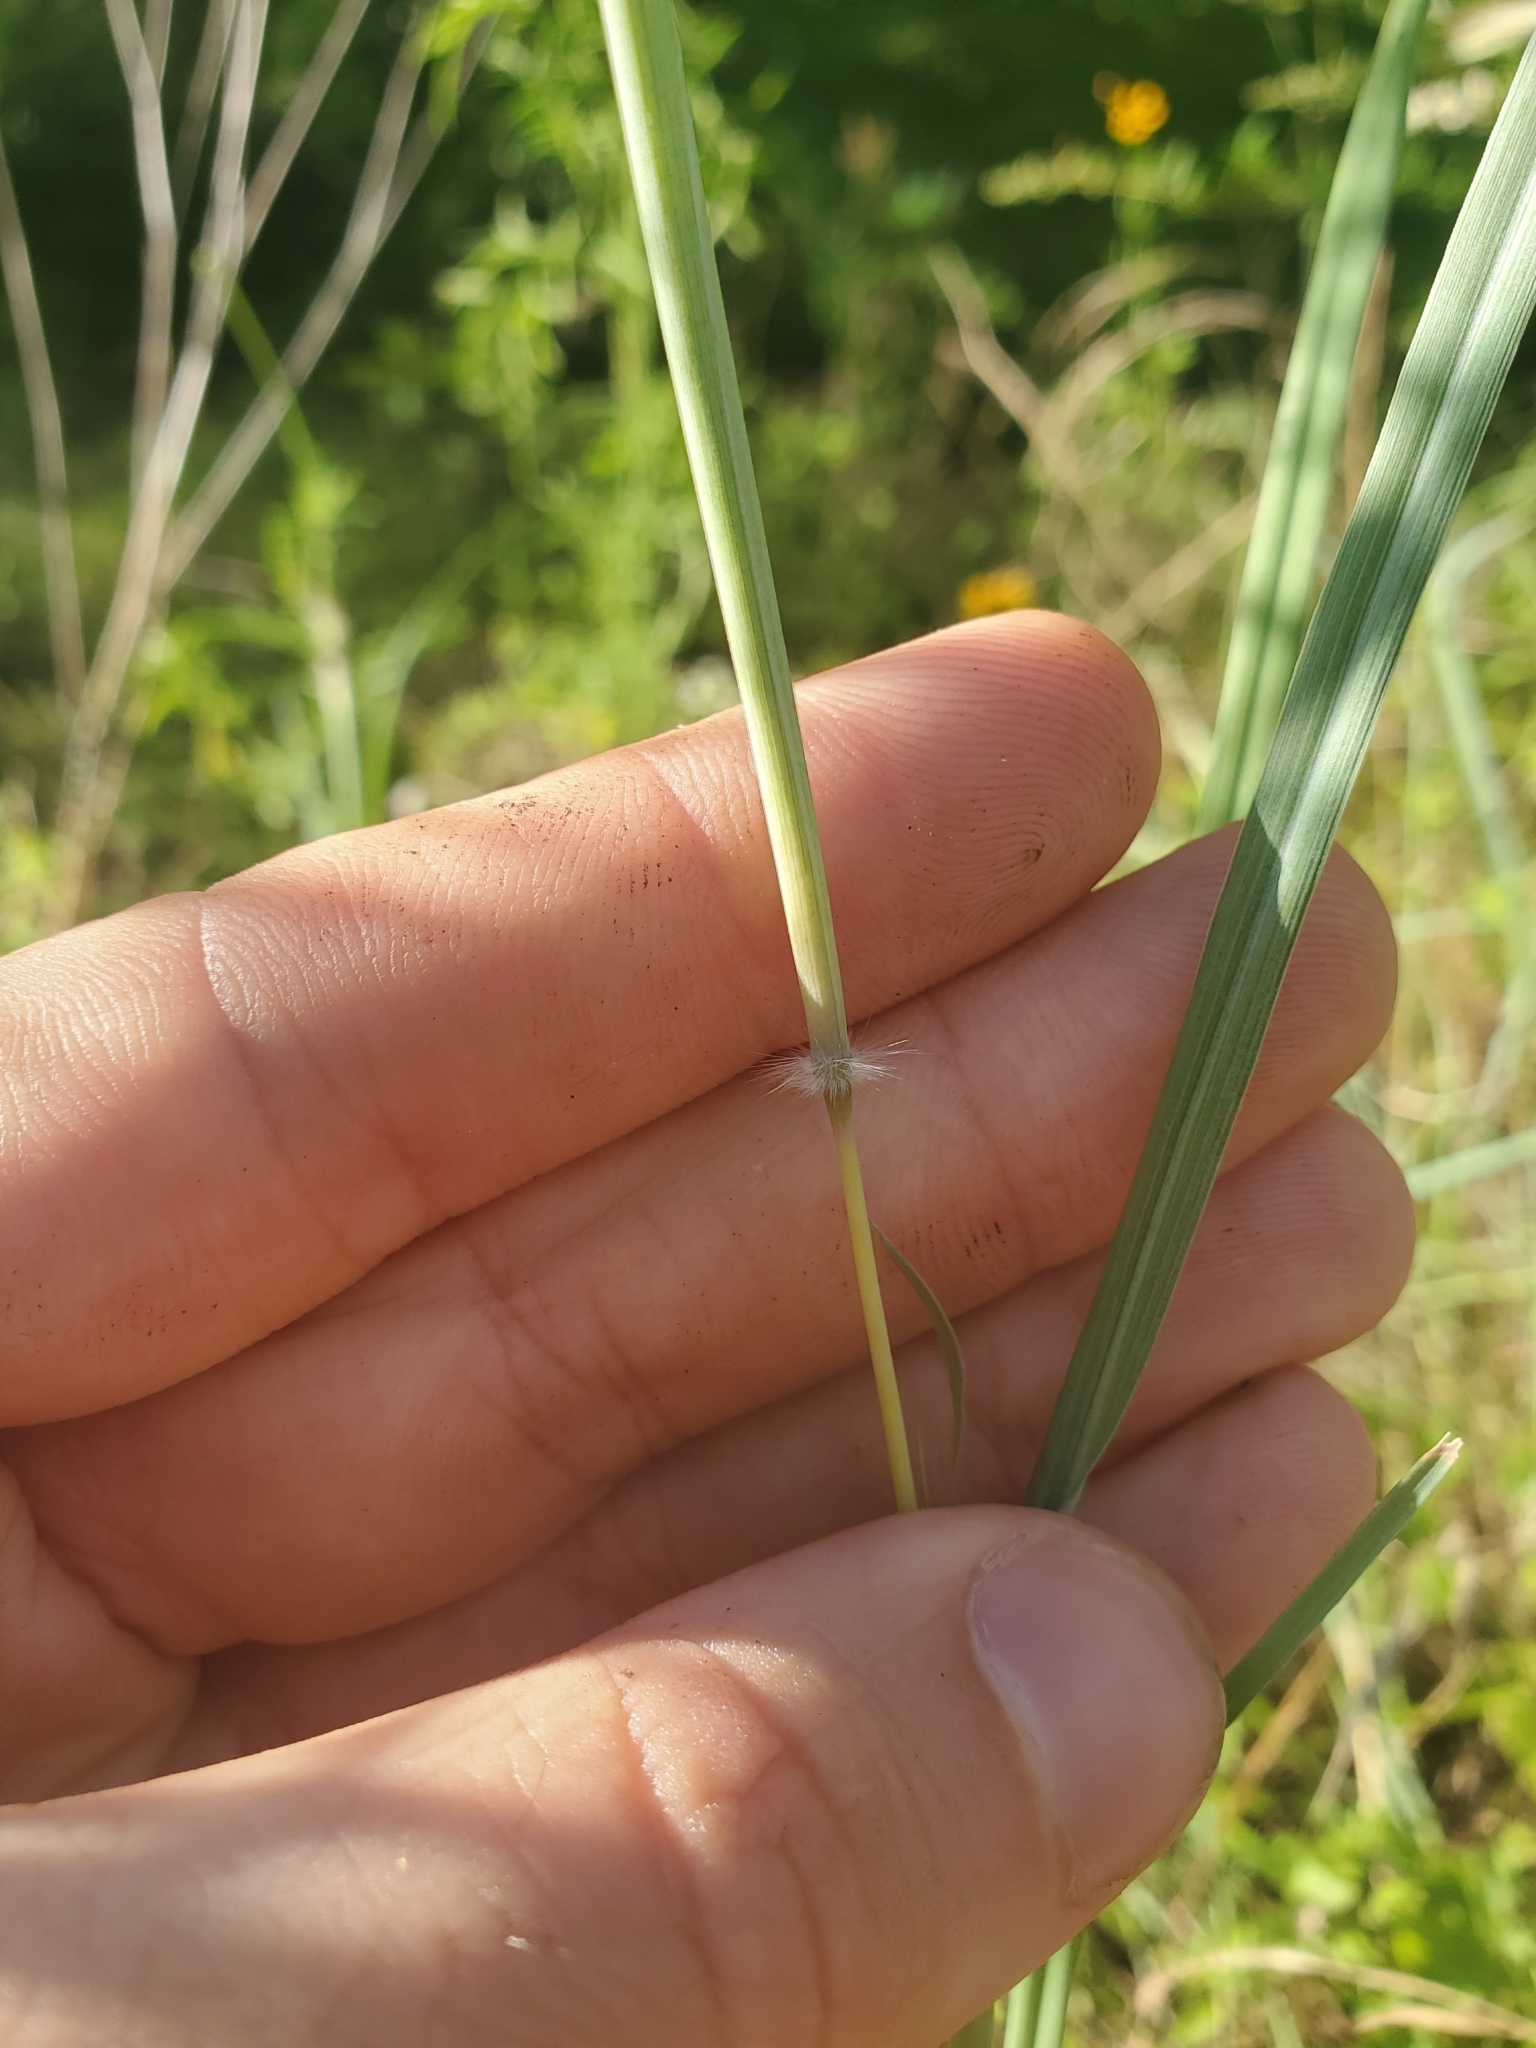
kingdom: Plantae
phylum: Tracheophyta
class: Liliopsida
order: Poales
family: Poaceae
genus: Dichanthium
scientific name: Dichanthium sericeum
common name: Silky bluestem
